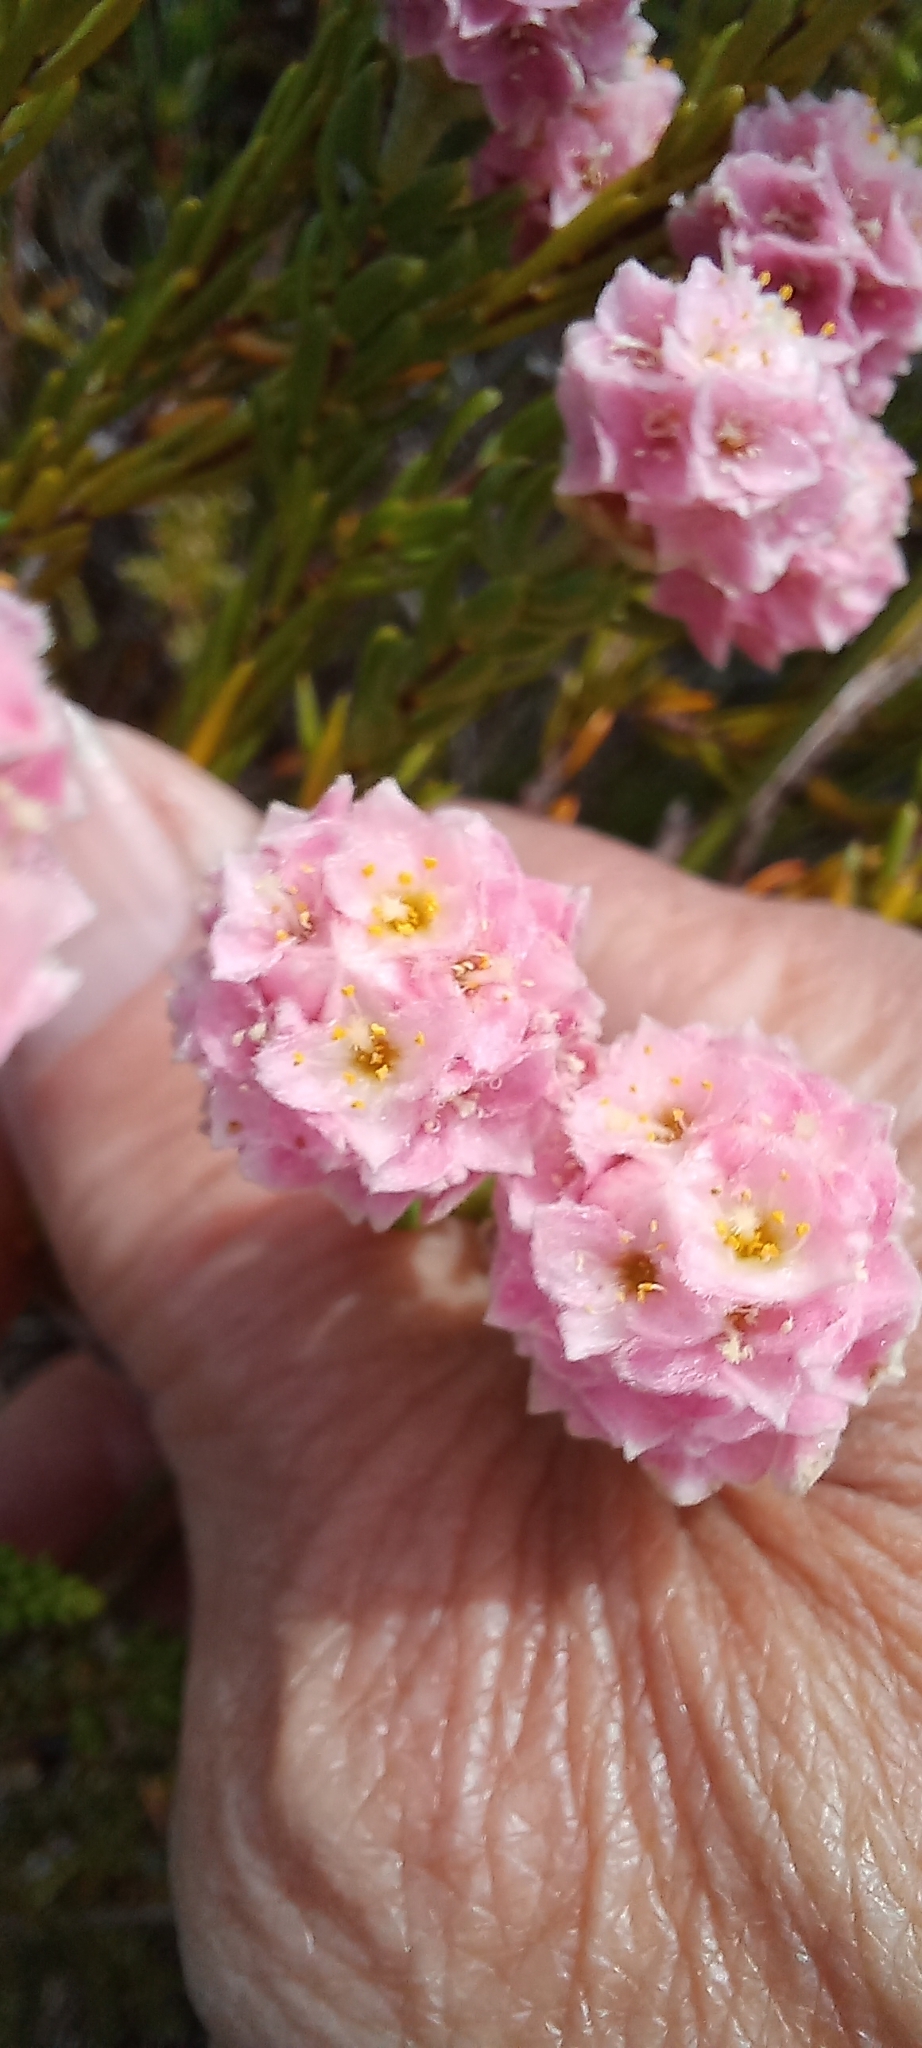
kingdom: Plantae
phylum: Tracheophyta
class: Magnoliopsida
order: Malvales
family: Thymelaeaceae
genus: Lachnaea
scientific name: Lachnaea densiflora
